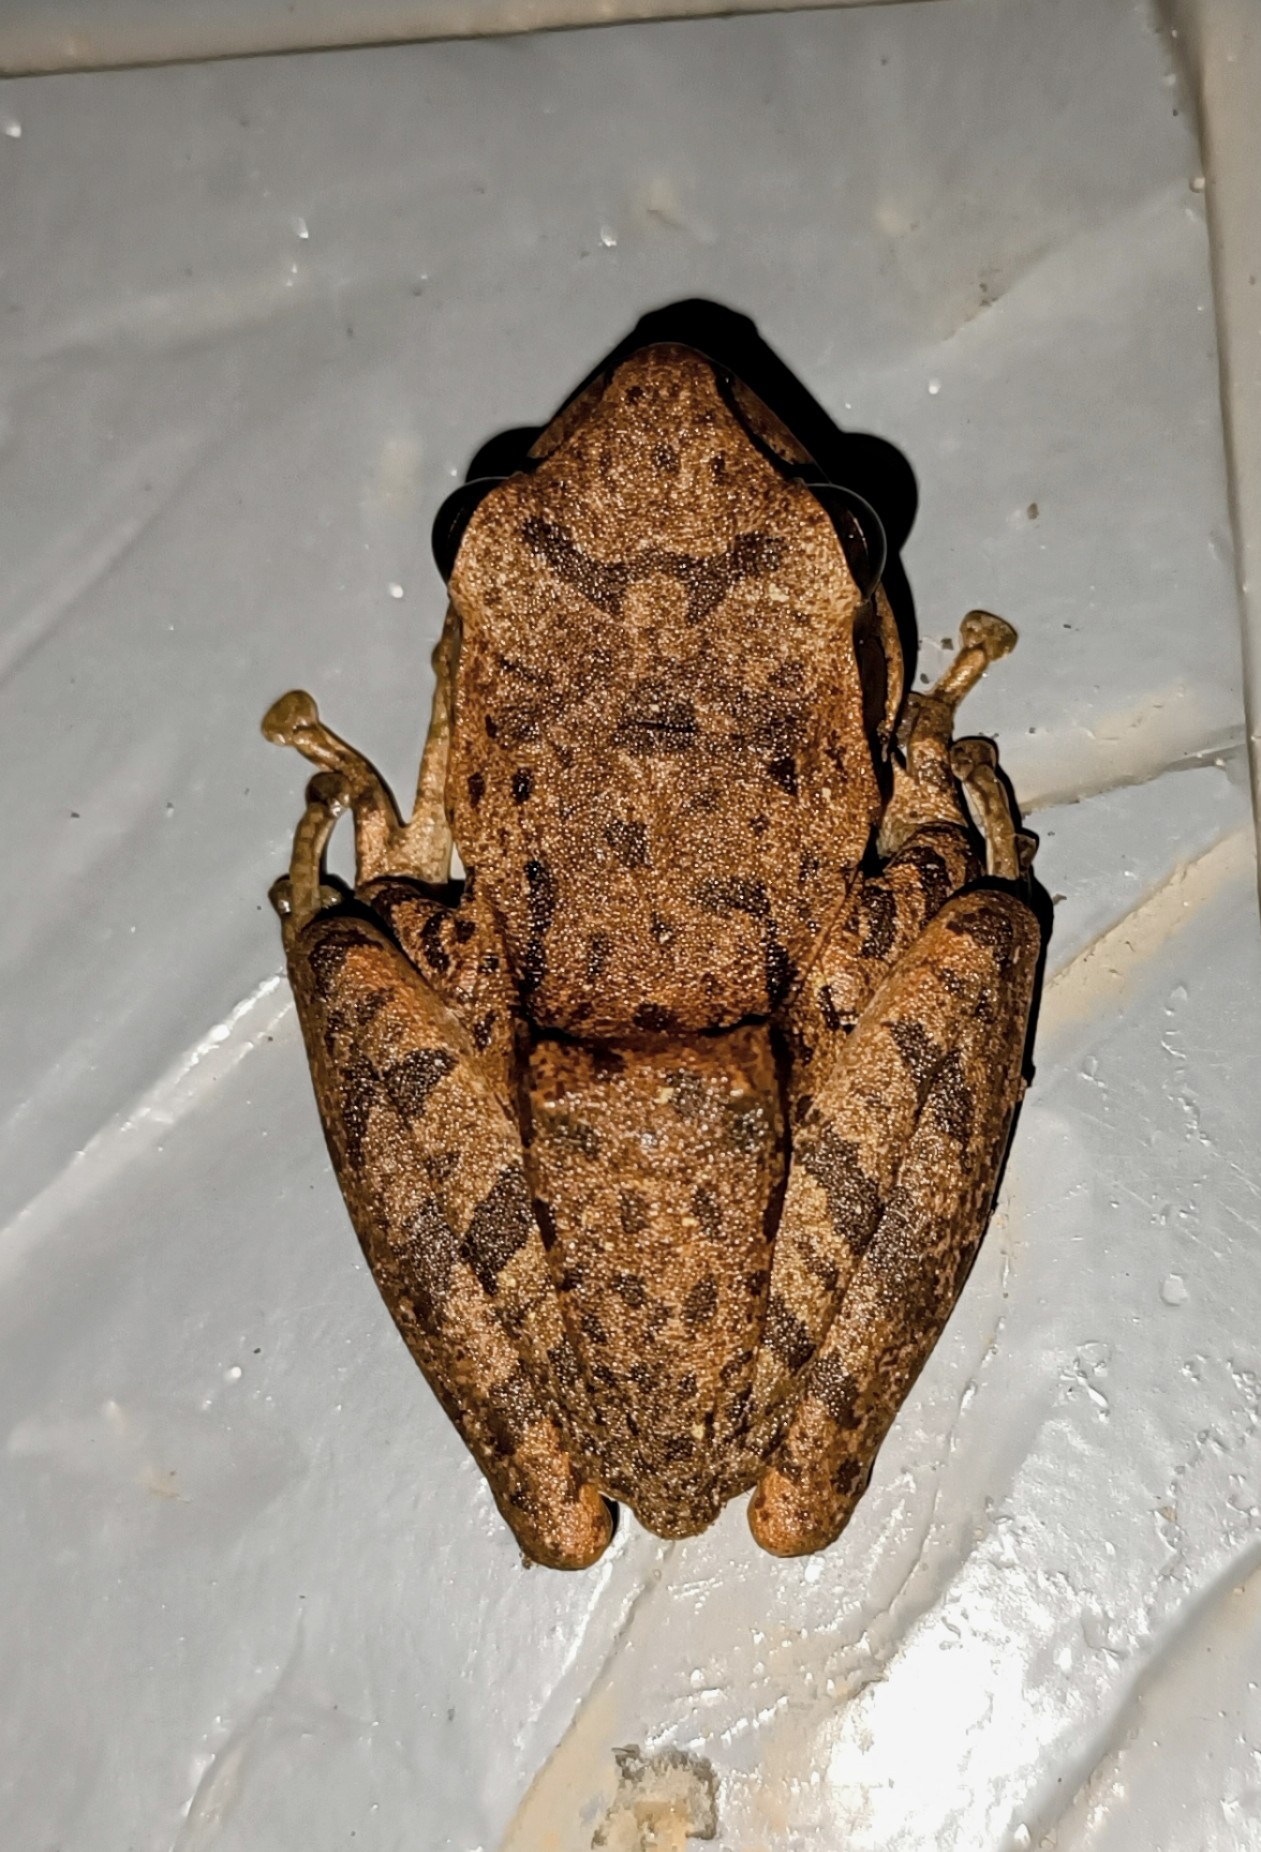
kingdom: Animalia
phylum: Chordata
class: Amphibia
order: Anura
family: Rhacophoridae
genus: Polypedates
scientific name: Polypedates maculatus
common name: Himalayan tree frog
